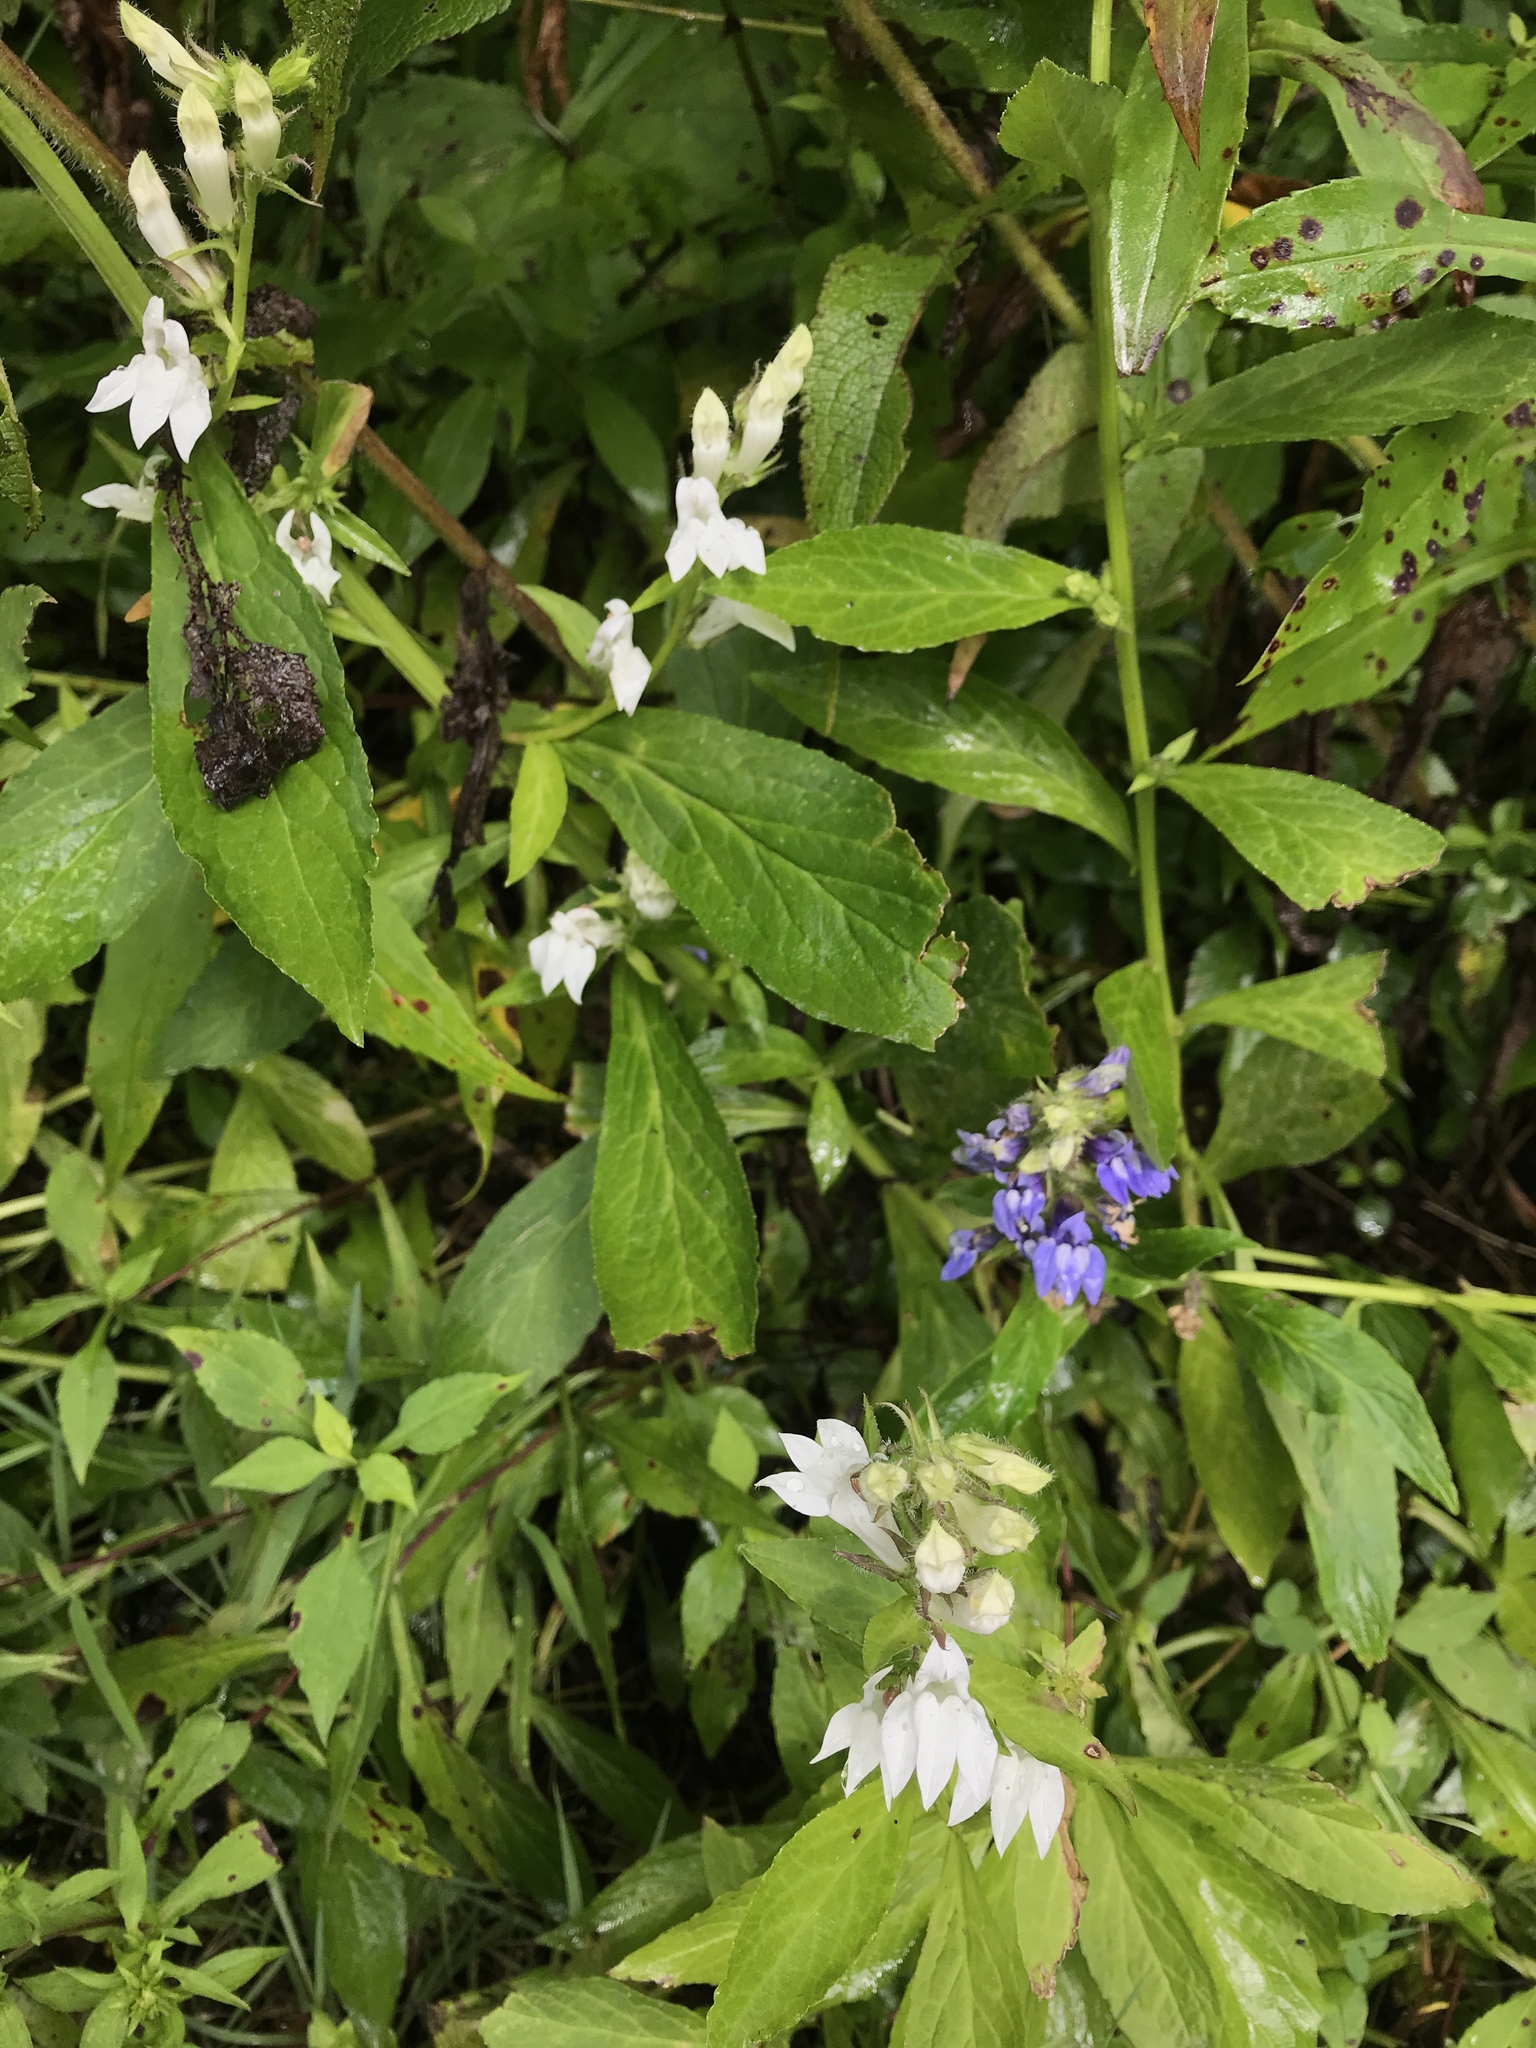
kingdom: Plantae
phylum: Tracheophyta
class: Magnoliopsida
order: Asterales
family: Campanulaceae
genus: Lobelia
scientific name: Lobelia siphilitica
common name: Great lobelia
